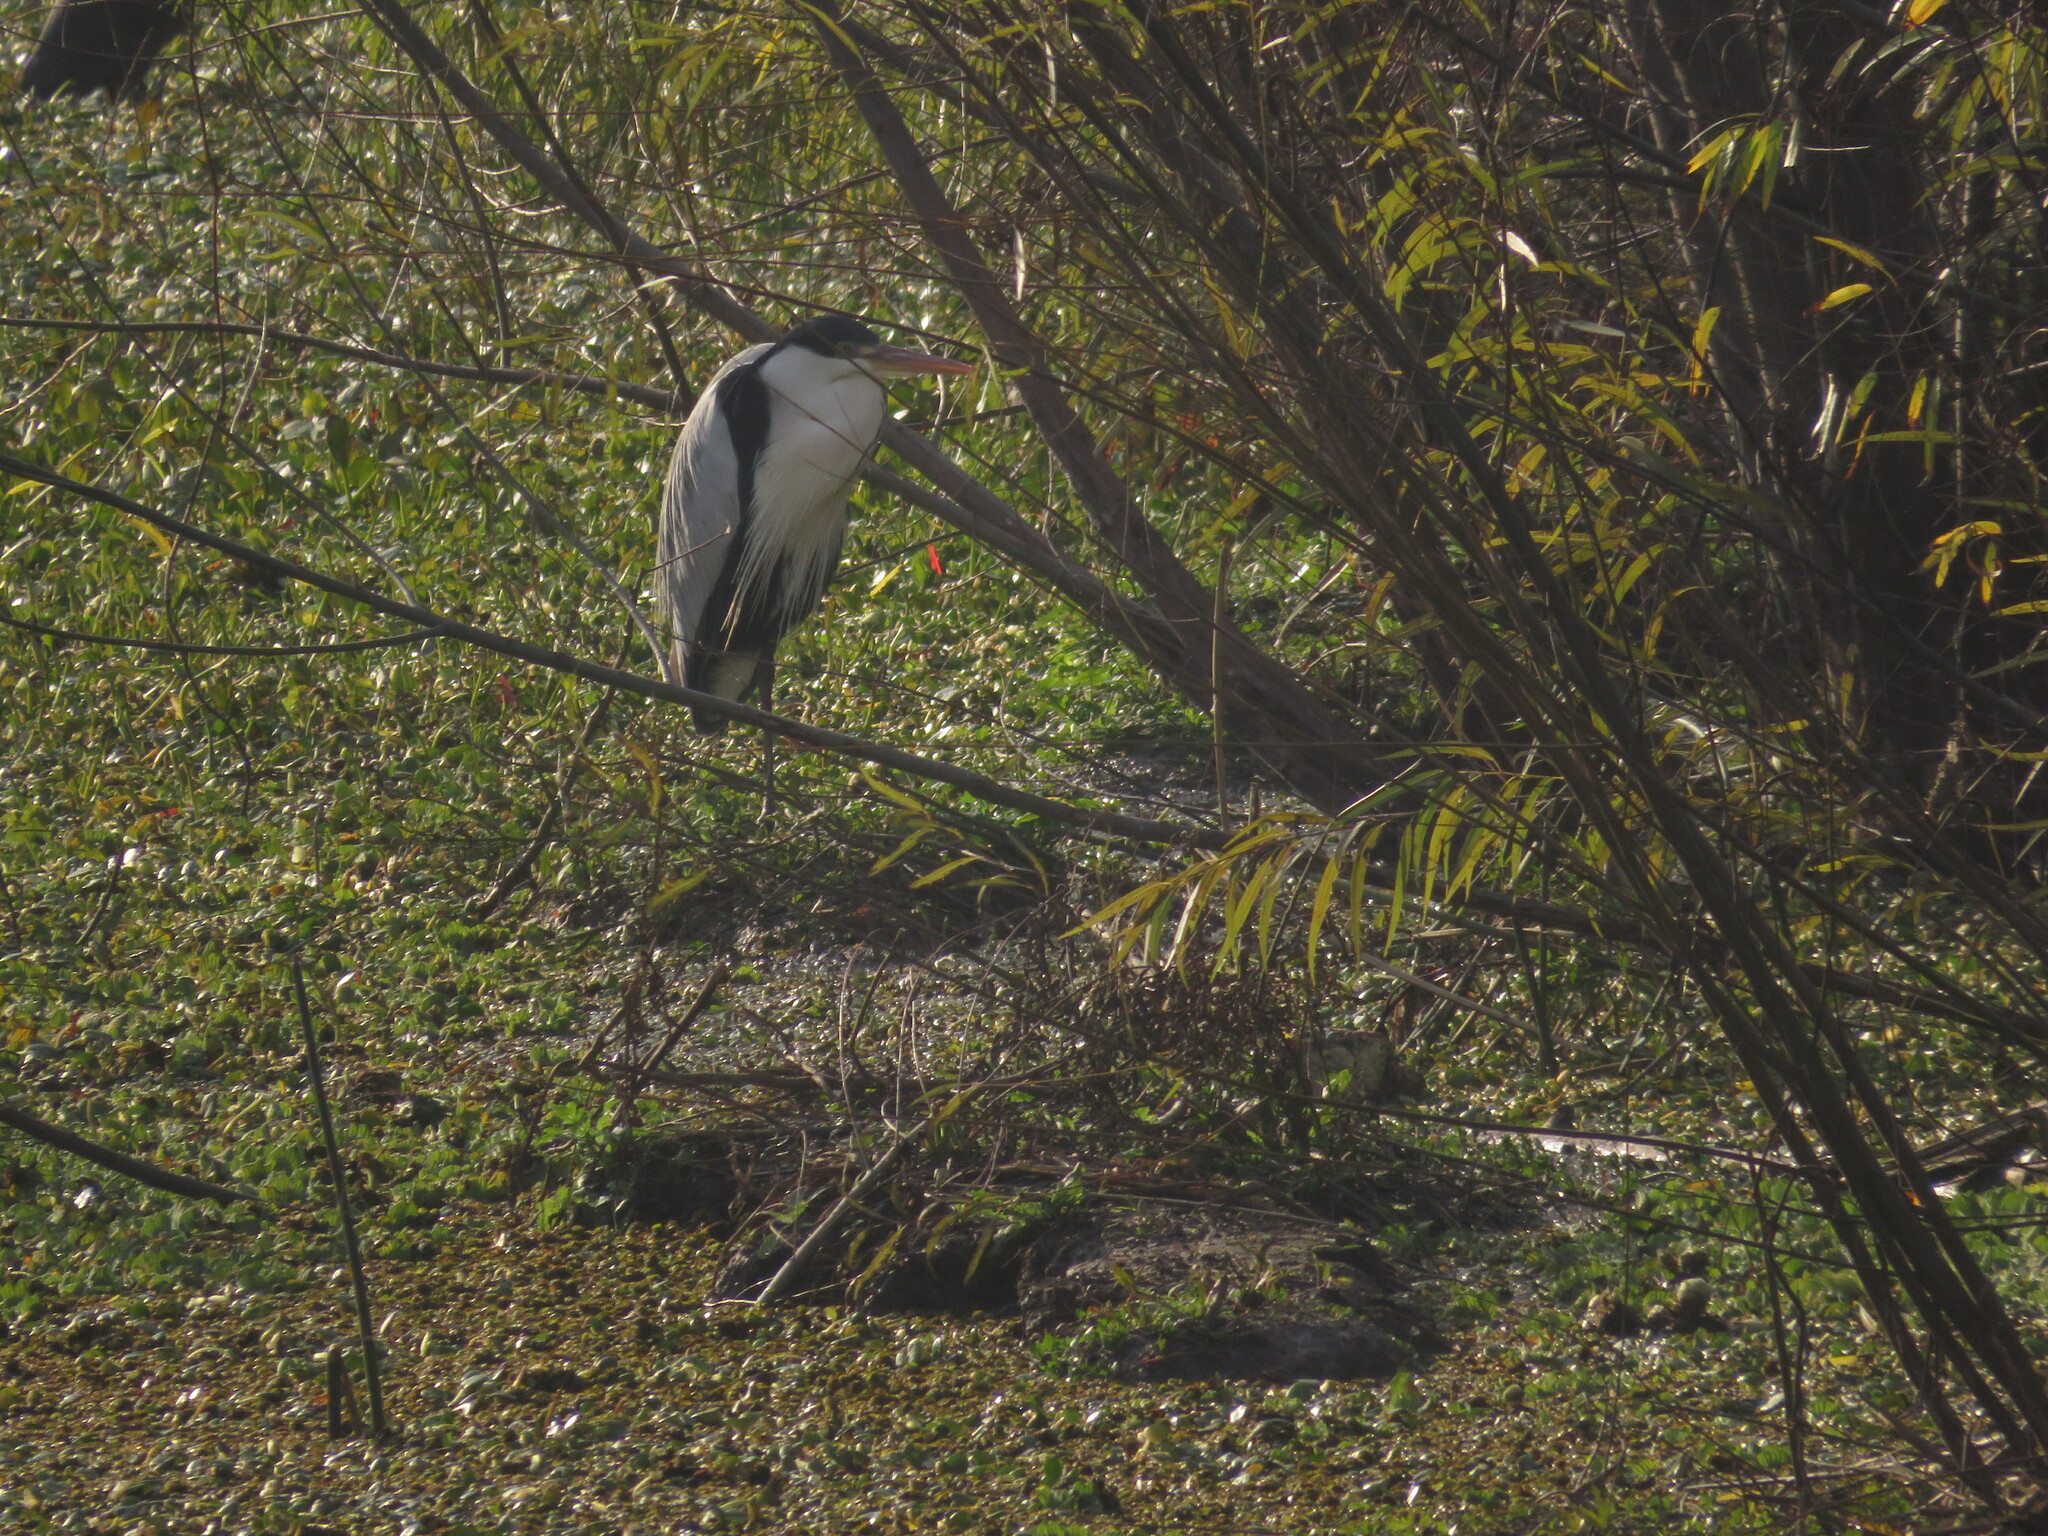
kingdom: Animalia
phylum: Chordata
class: Aves
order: Pelecaniformes
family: Ardeidae
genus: Ardea
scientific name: Ardea cocoi
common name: Cocoi heron
